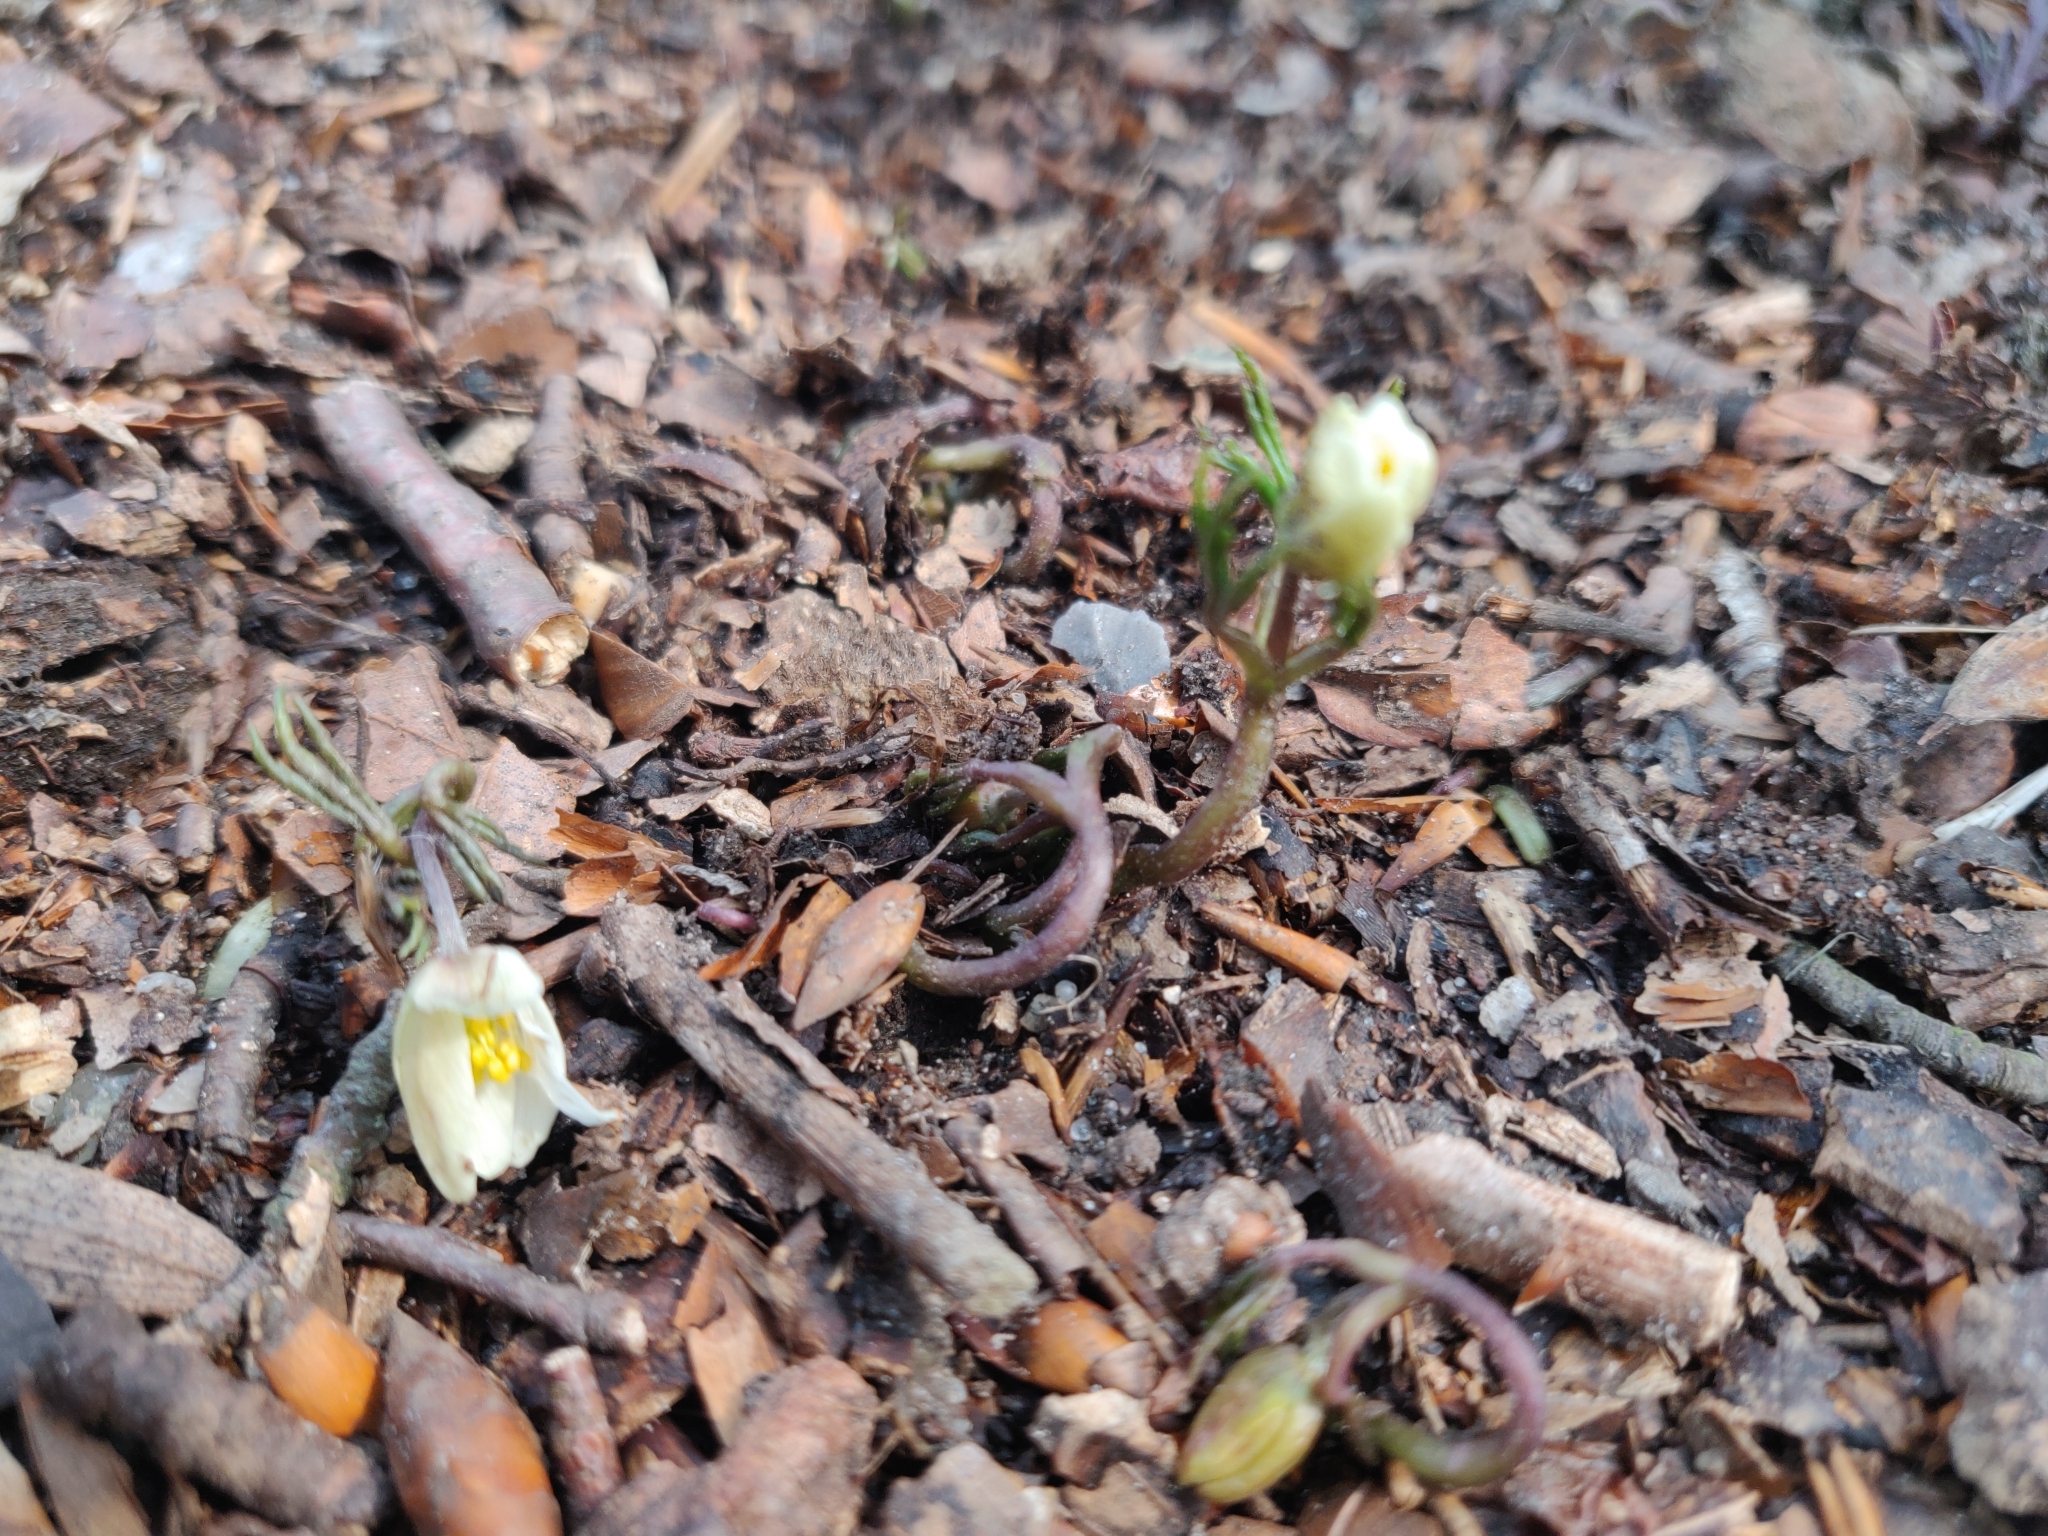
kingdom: Plantae
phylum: Tracheophyta
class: Magnoliopsida
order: Ranunculales
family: Ranunculaceae
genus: Anemone
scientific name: Anemone nemorosa
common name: Wood anemone
